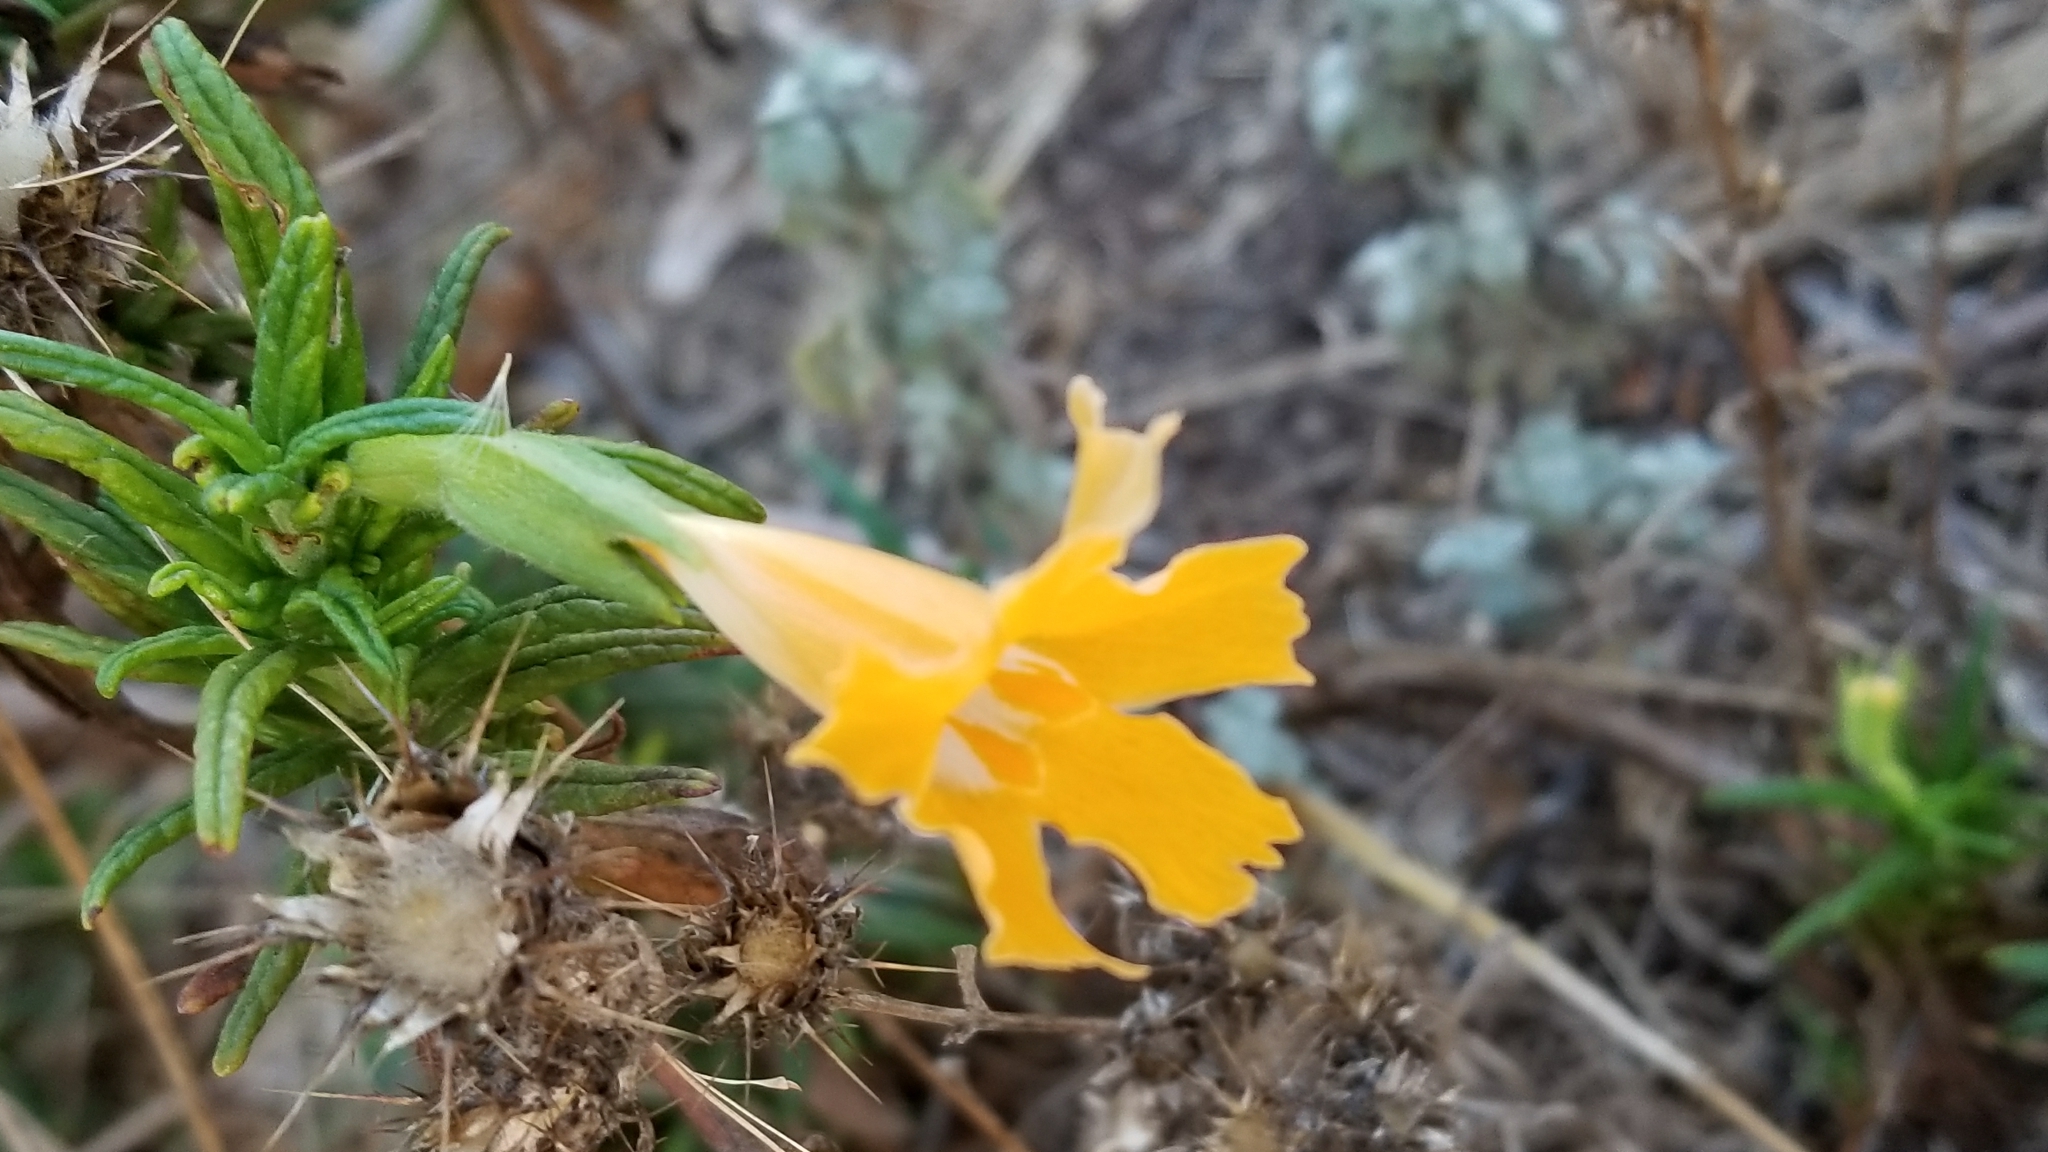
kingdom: Plantae
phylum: Tracheophyta
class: Magnoliopsida
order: Lamiales
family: Phrymaceae
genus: Diplacus
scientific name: Diplacus longiflorus
